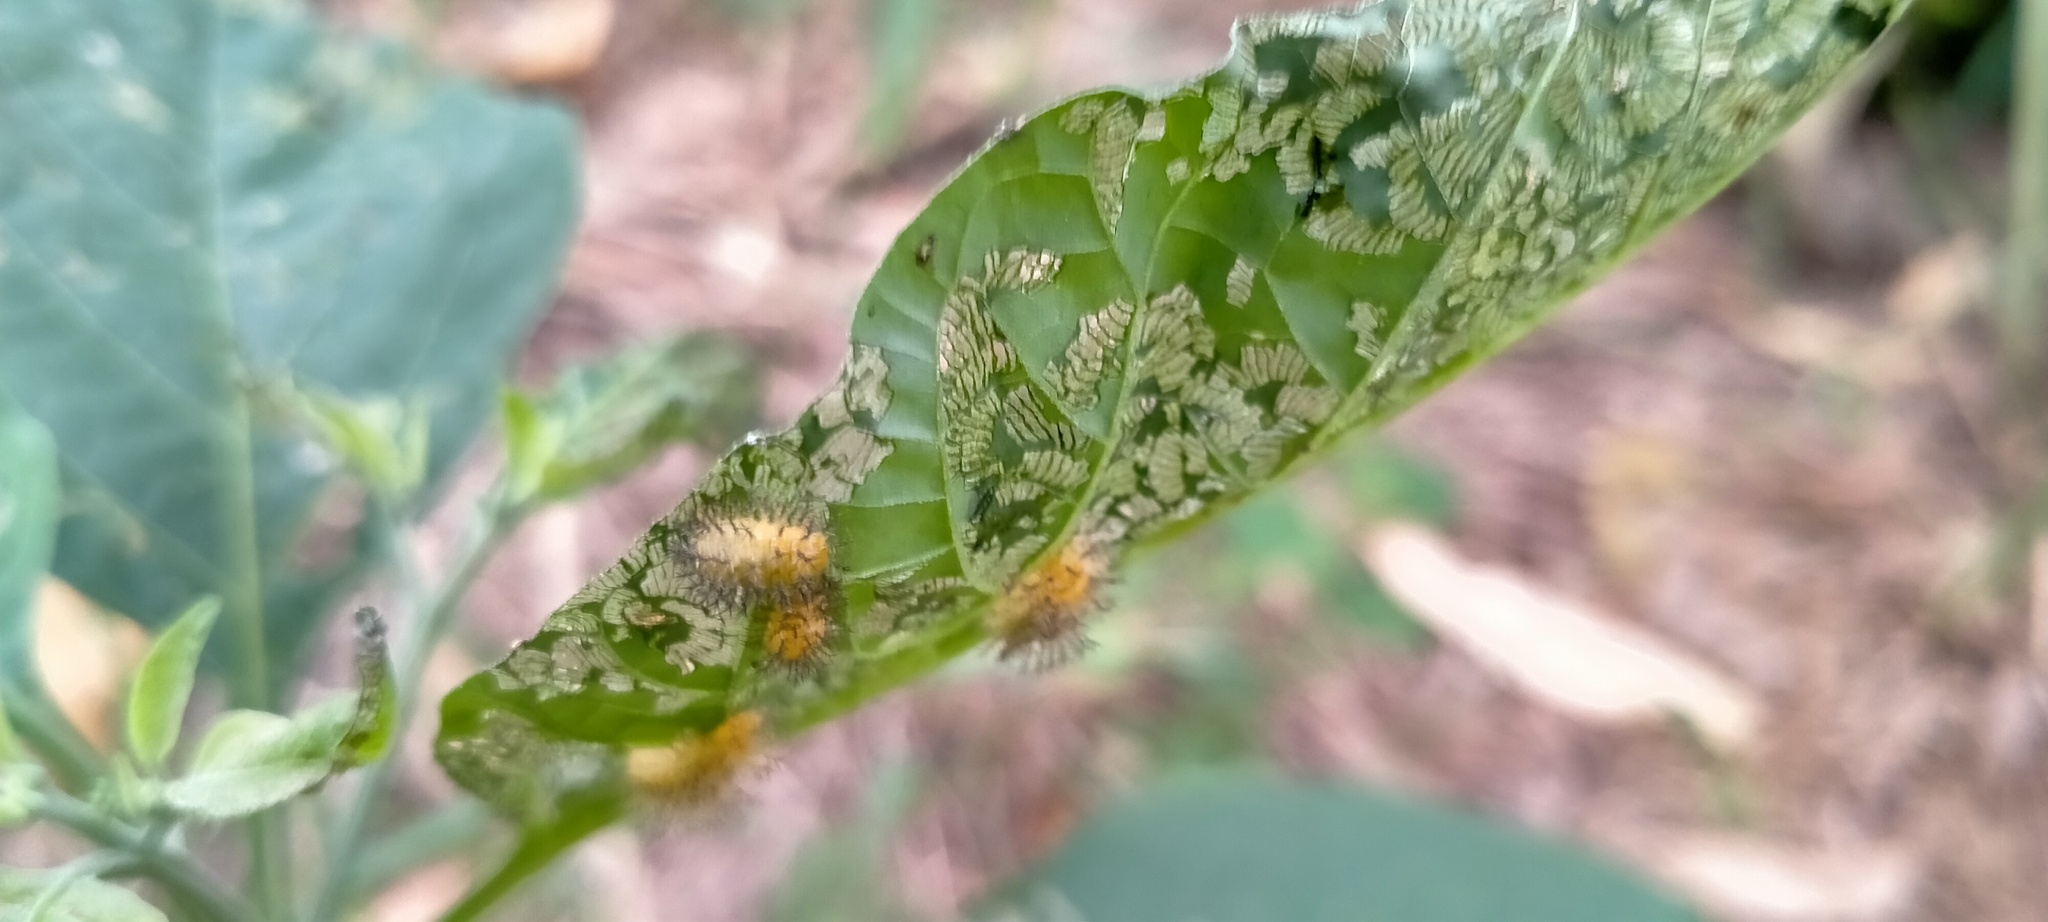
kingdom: Plantae
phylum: Tracheophyta
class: Magnoliopsida
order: Solanales
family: Solanaceae
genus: Solanum
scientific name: Solanum
